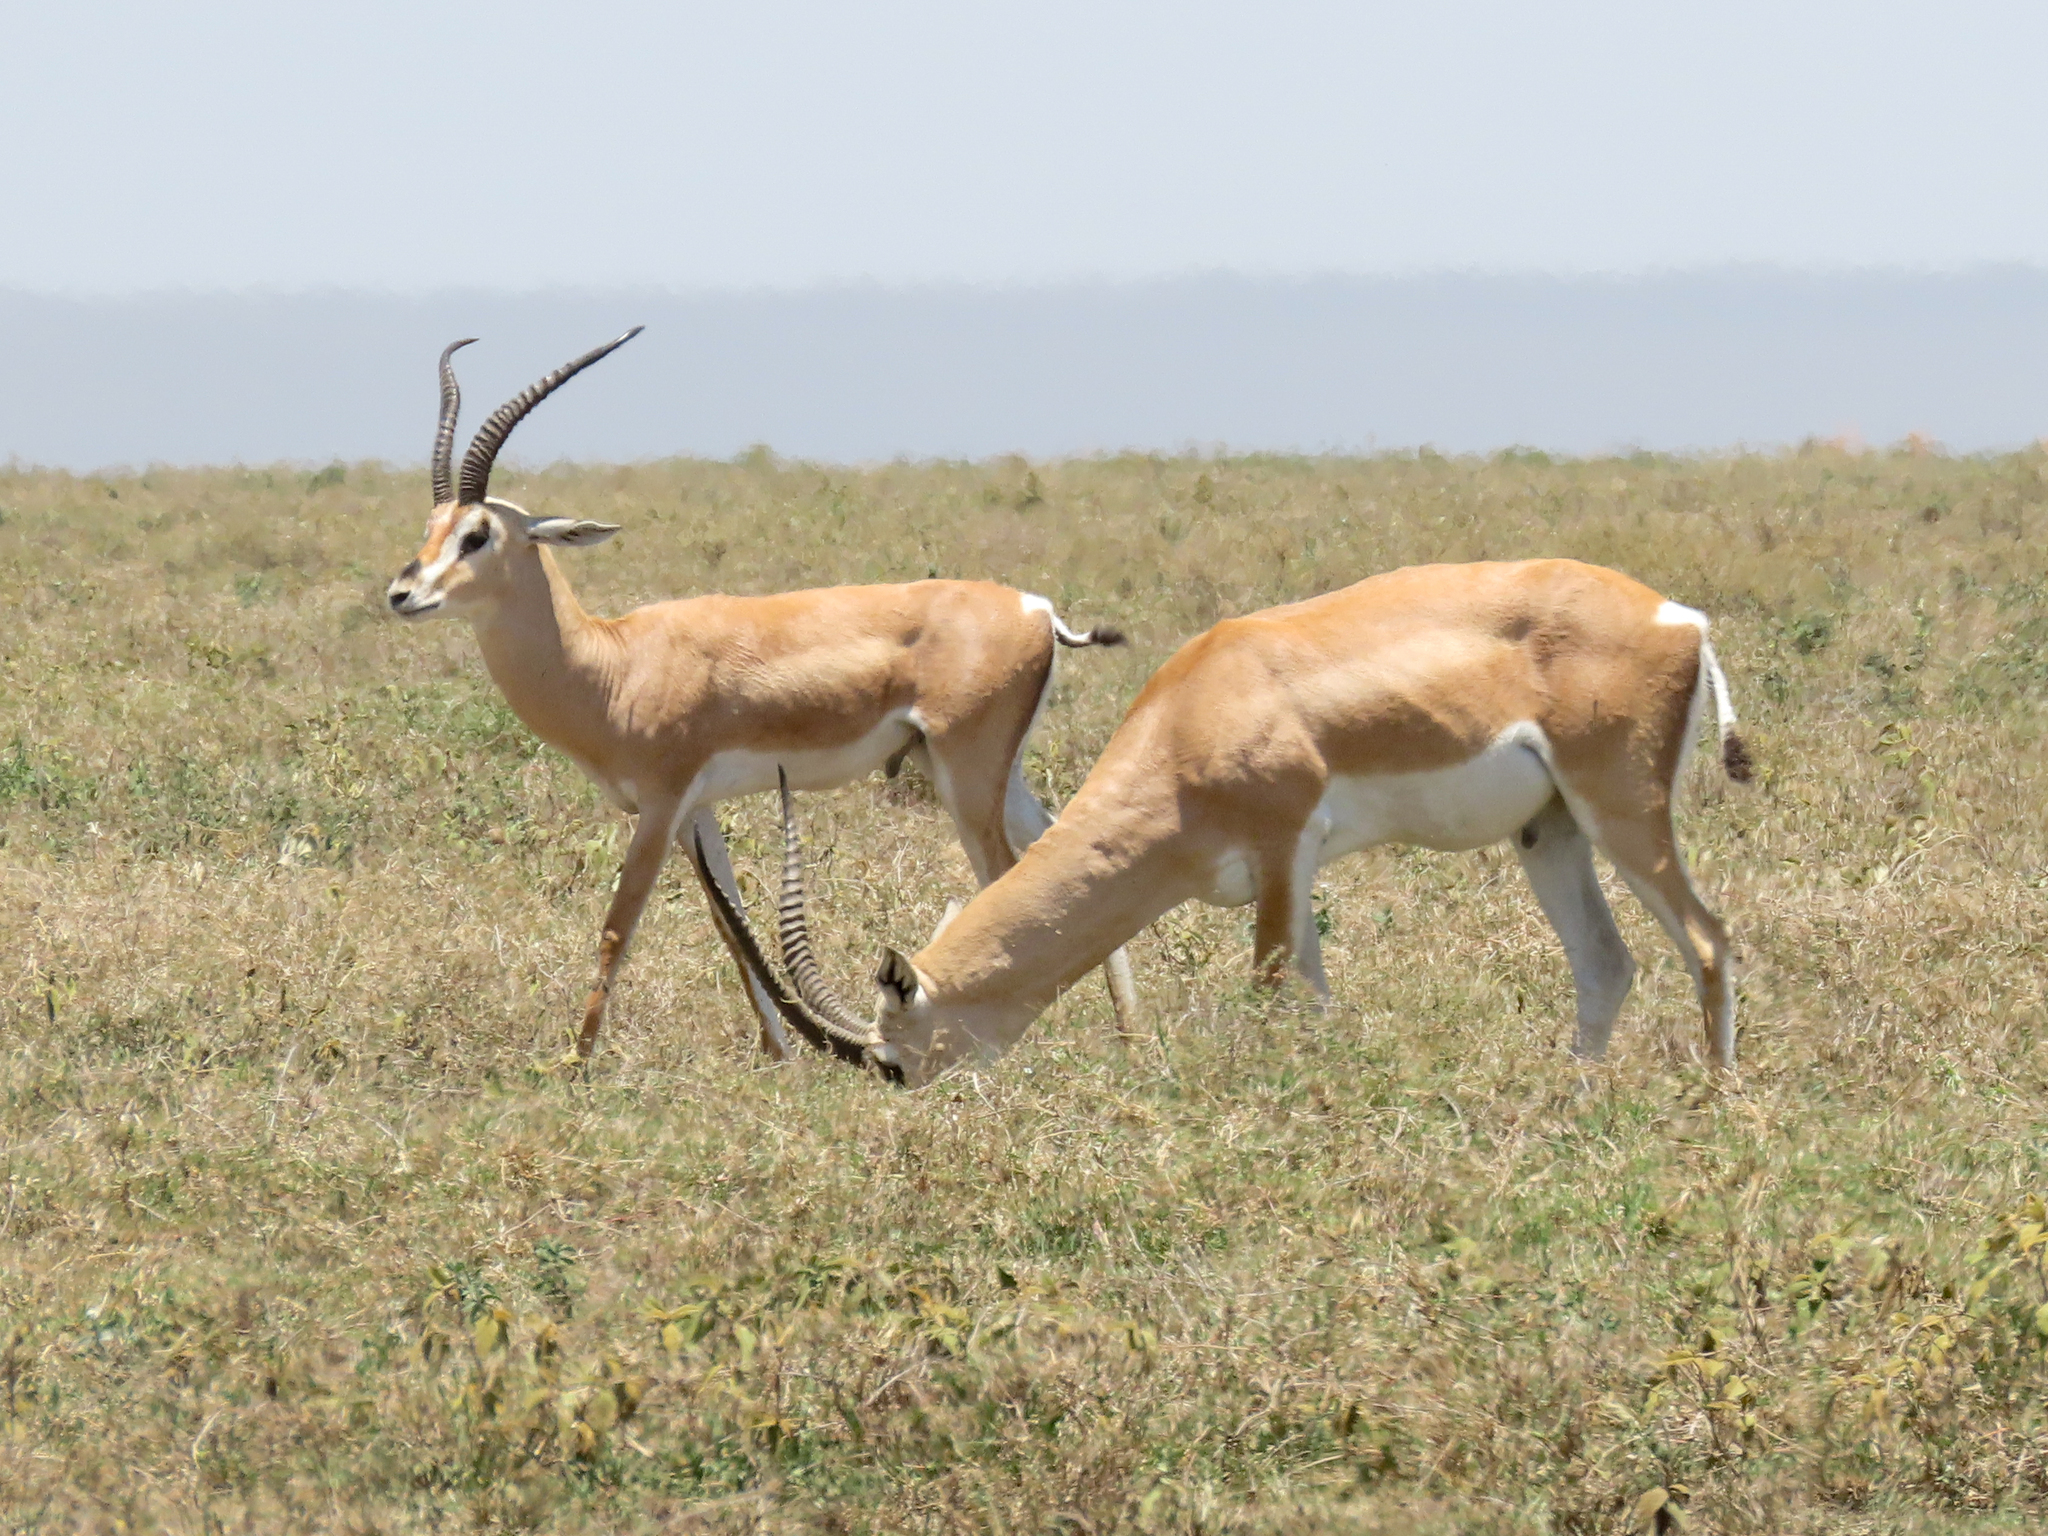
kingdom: Animalia
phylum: Chordata
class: Mammalia
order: Artiodactyla
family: Bovidae
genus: Nanger
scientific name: Nanger granti
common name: Grant's gazelle
